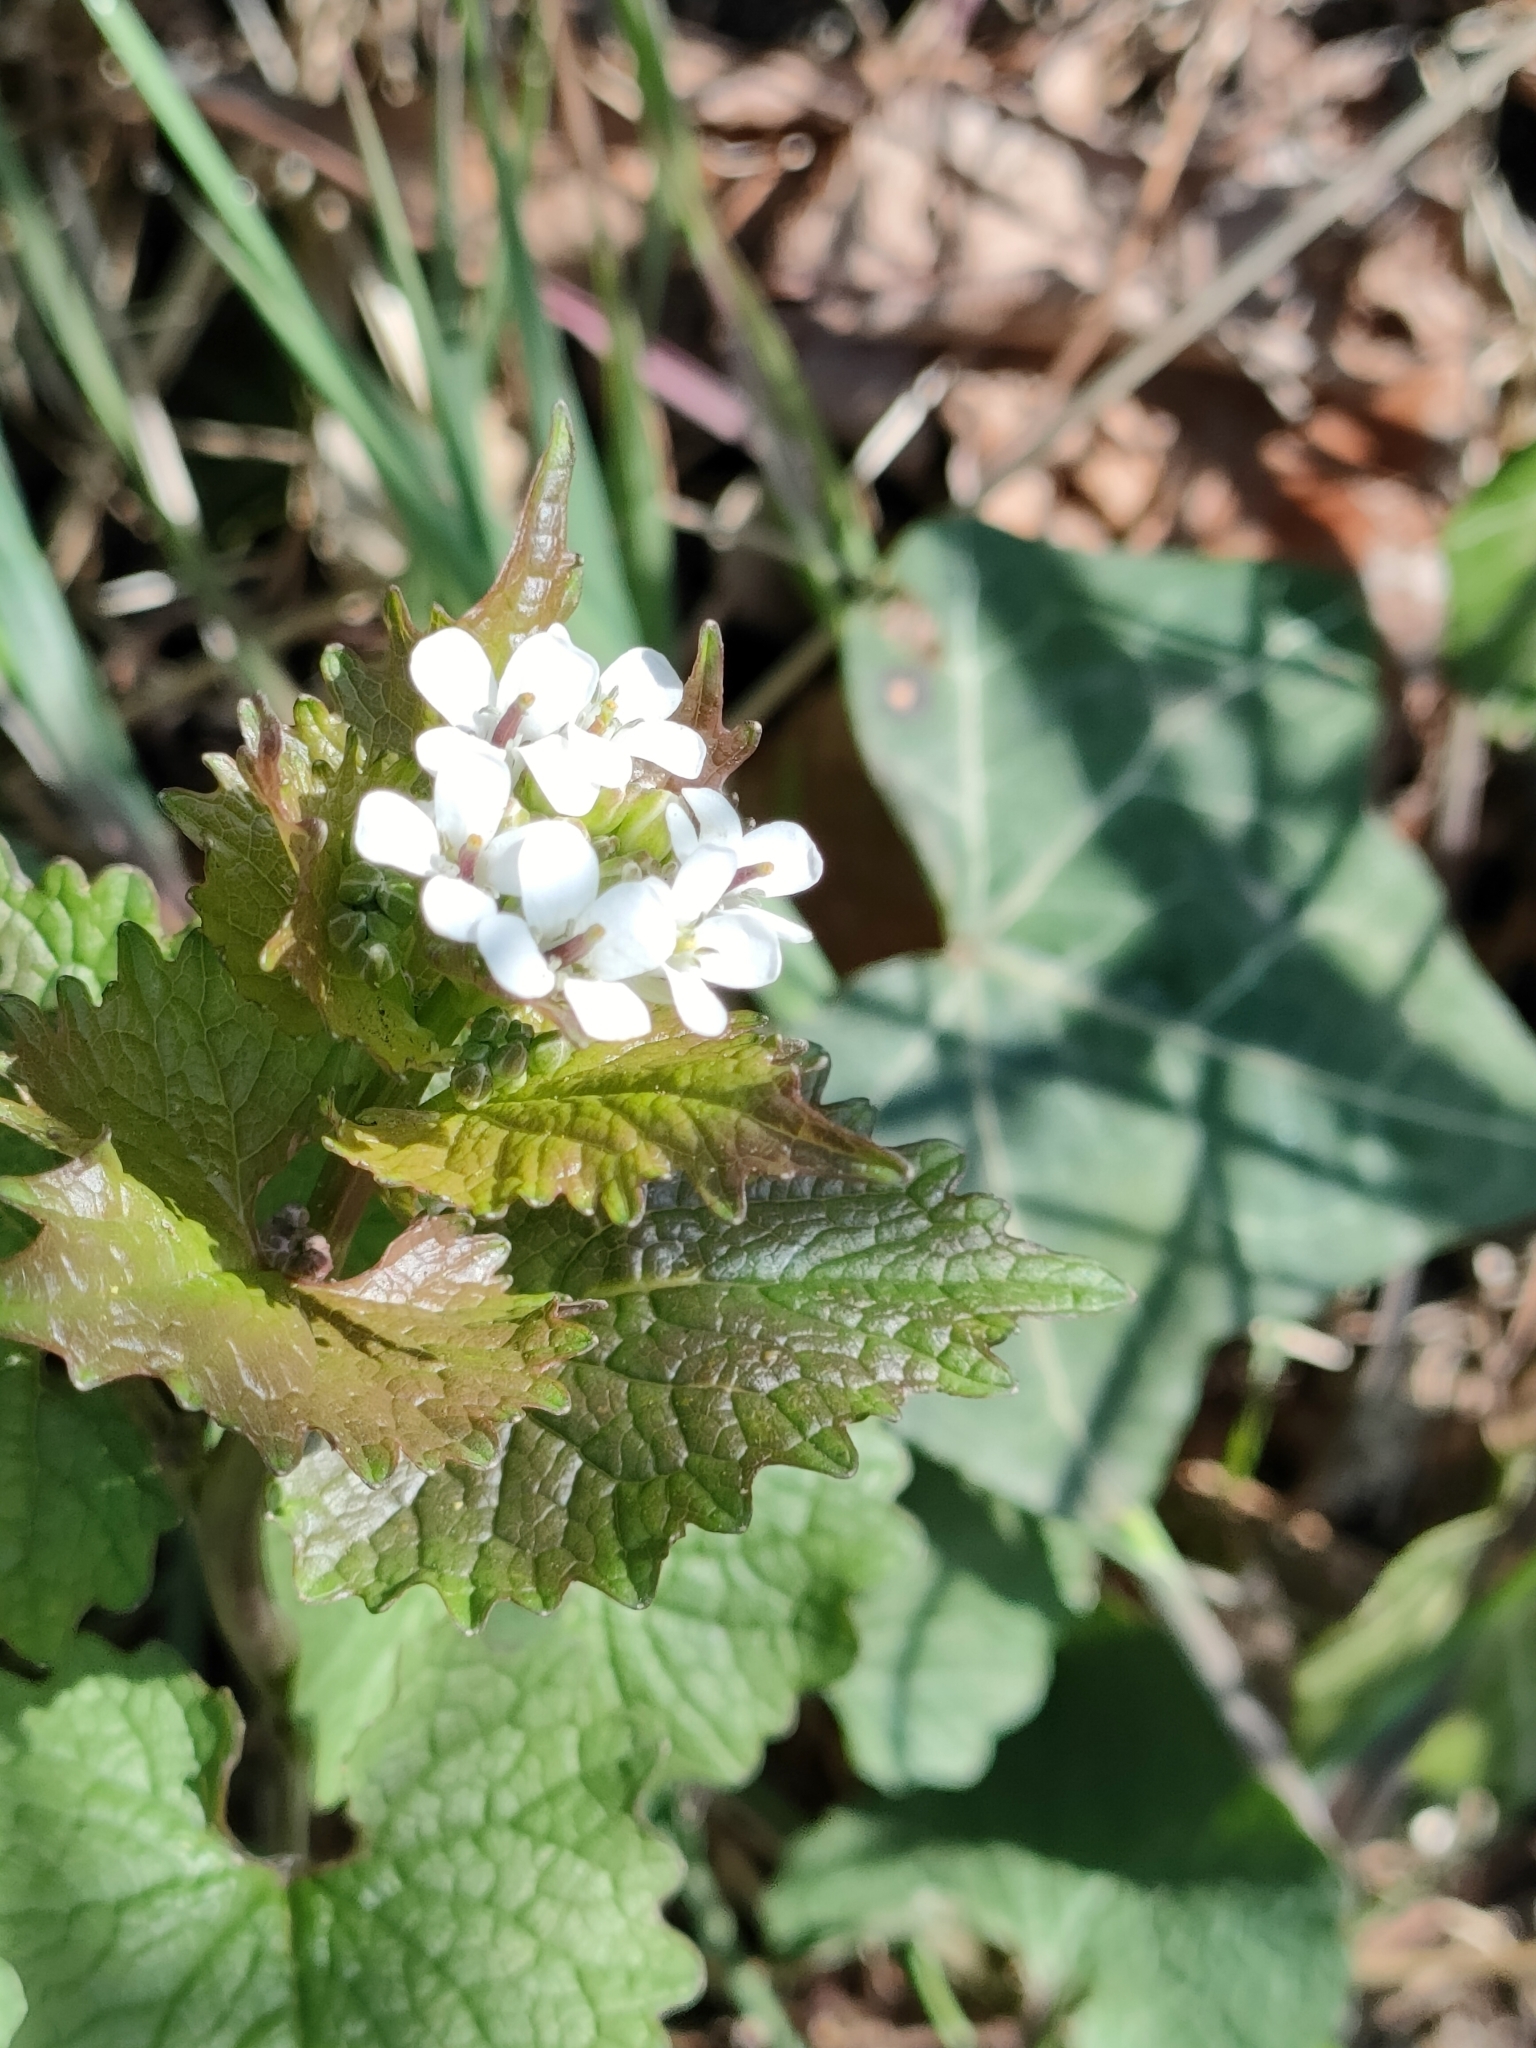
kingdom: Plantae
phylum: Tracheophyta
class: Magnoliopsida
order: Brassicales
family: Brassicaceae
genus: Alliaria
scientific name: Alliaria petiolata
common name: Garlic mustard
